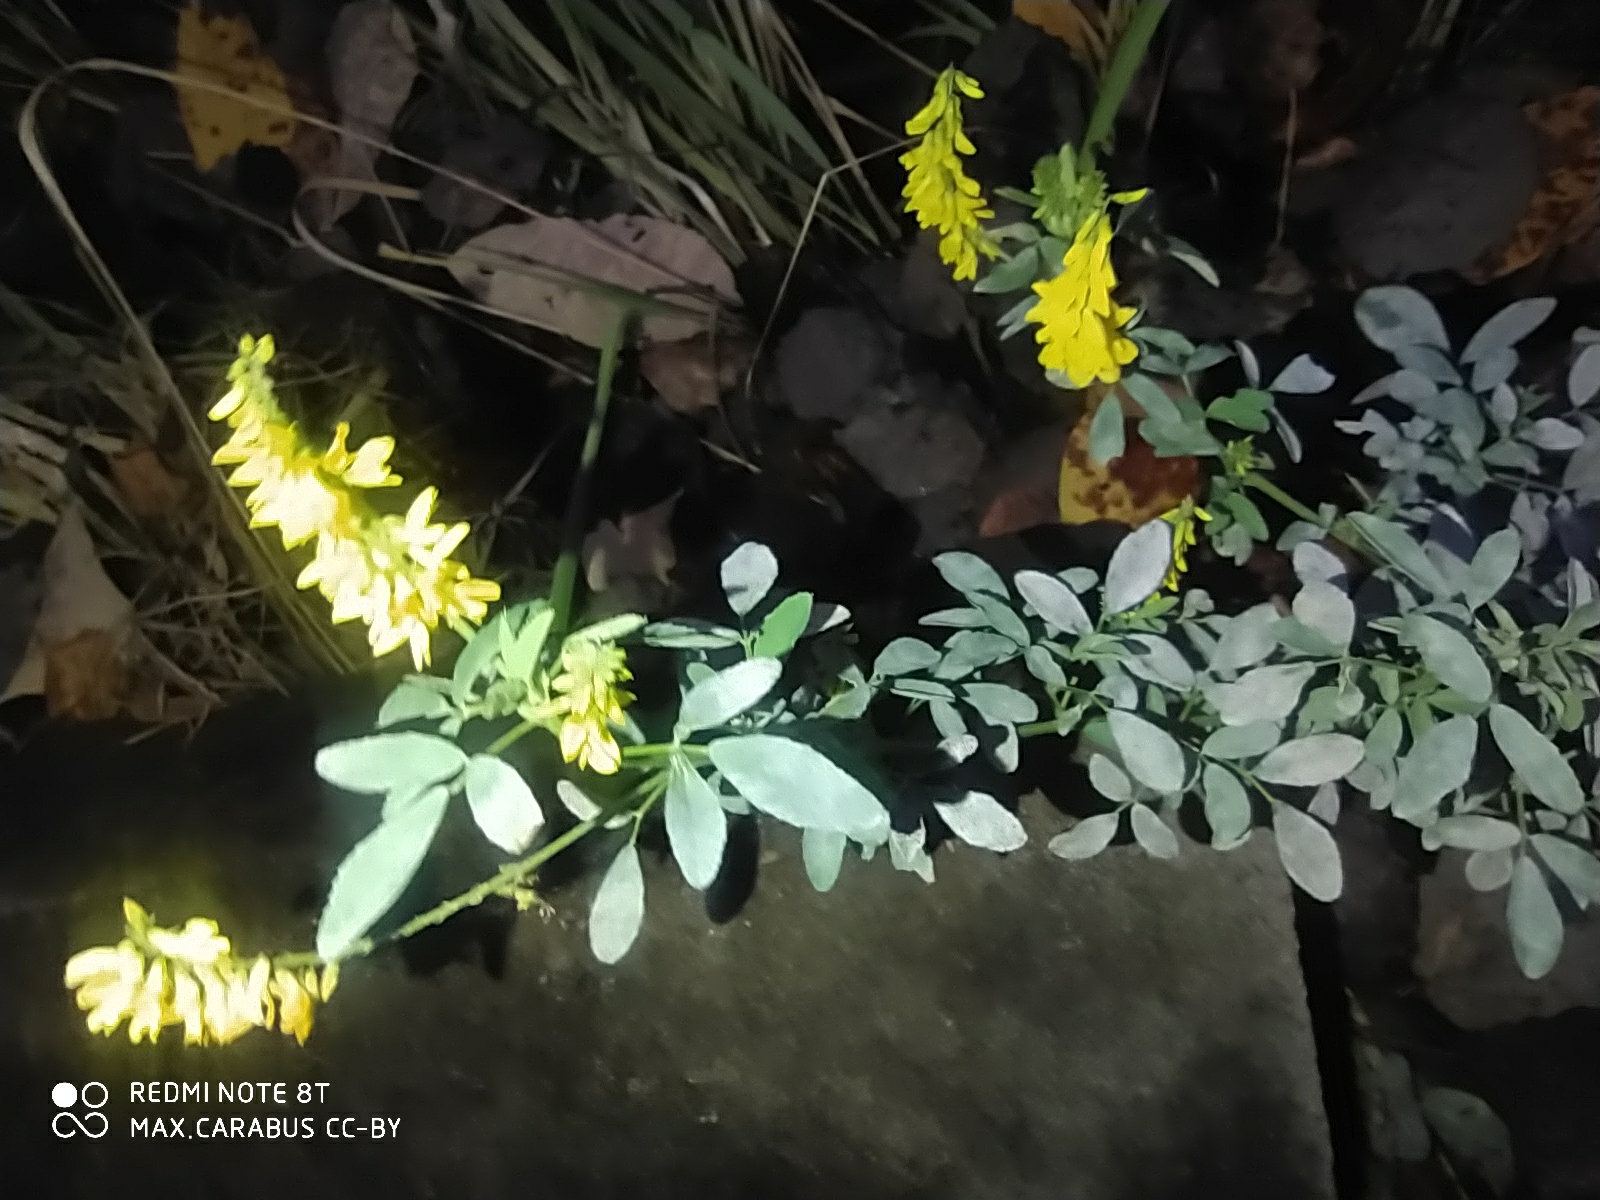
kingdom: Plantae
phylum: Tracheophyta
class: Magnoliopsida
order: Fabales
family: Fabaceae
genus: Melilotus
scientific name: Melilotus officinalis
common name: Sweetclover
